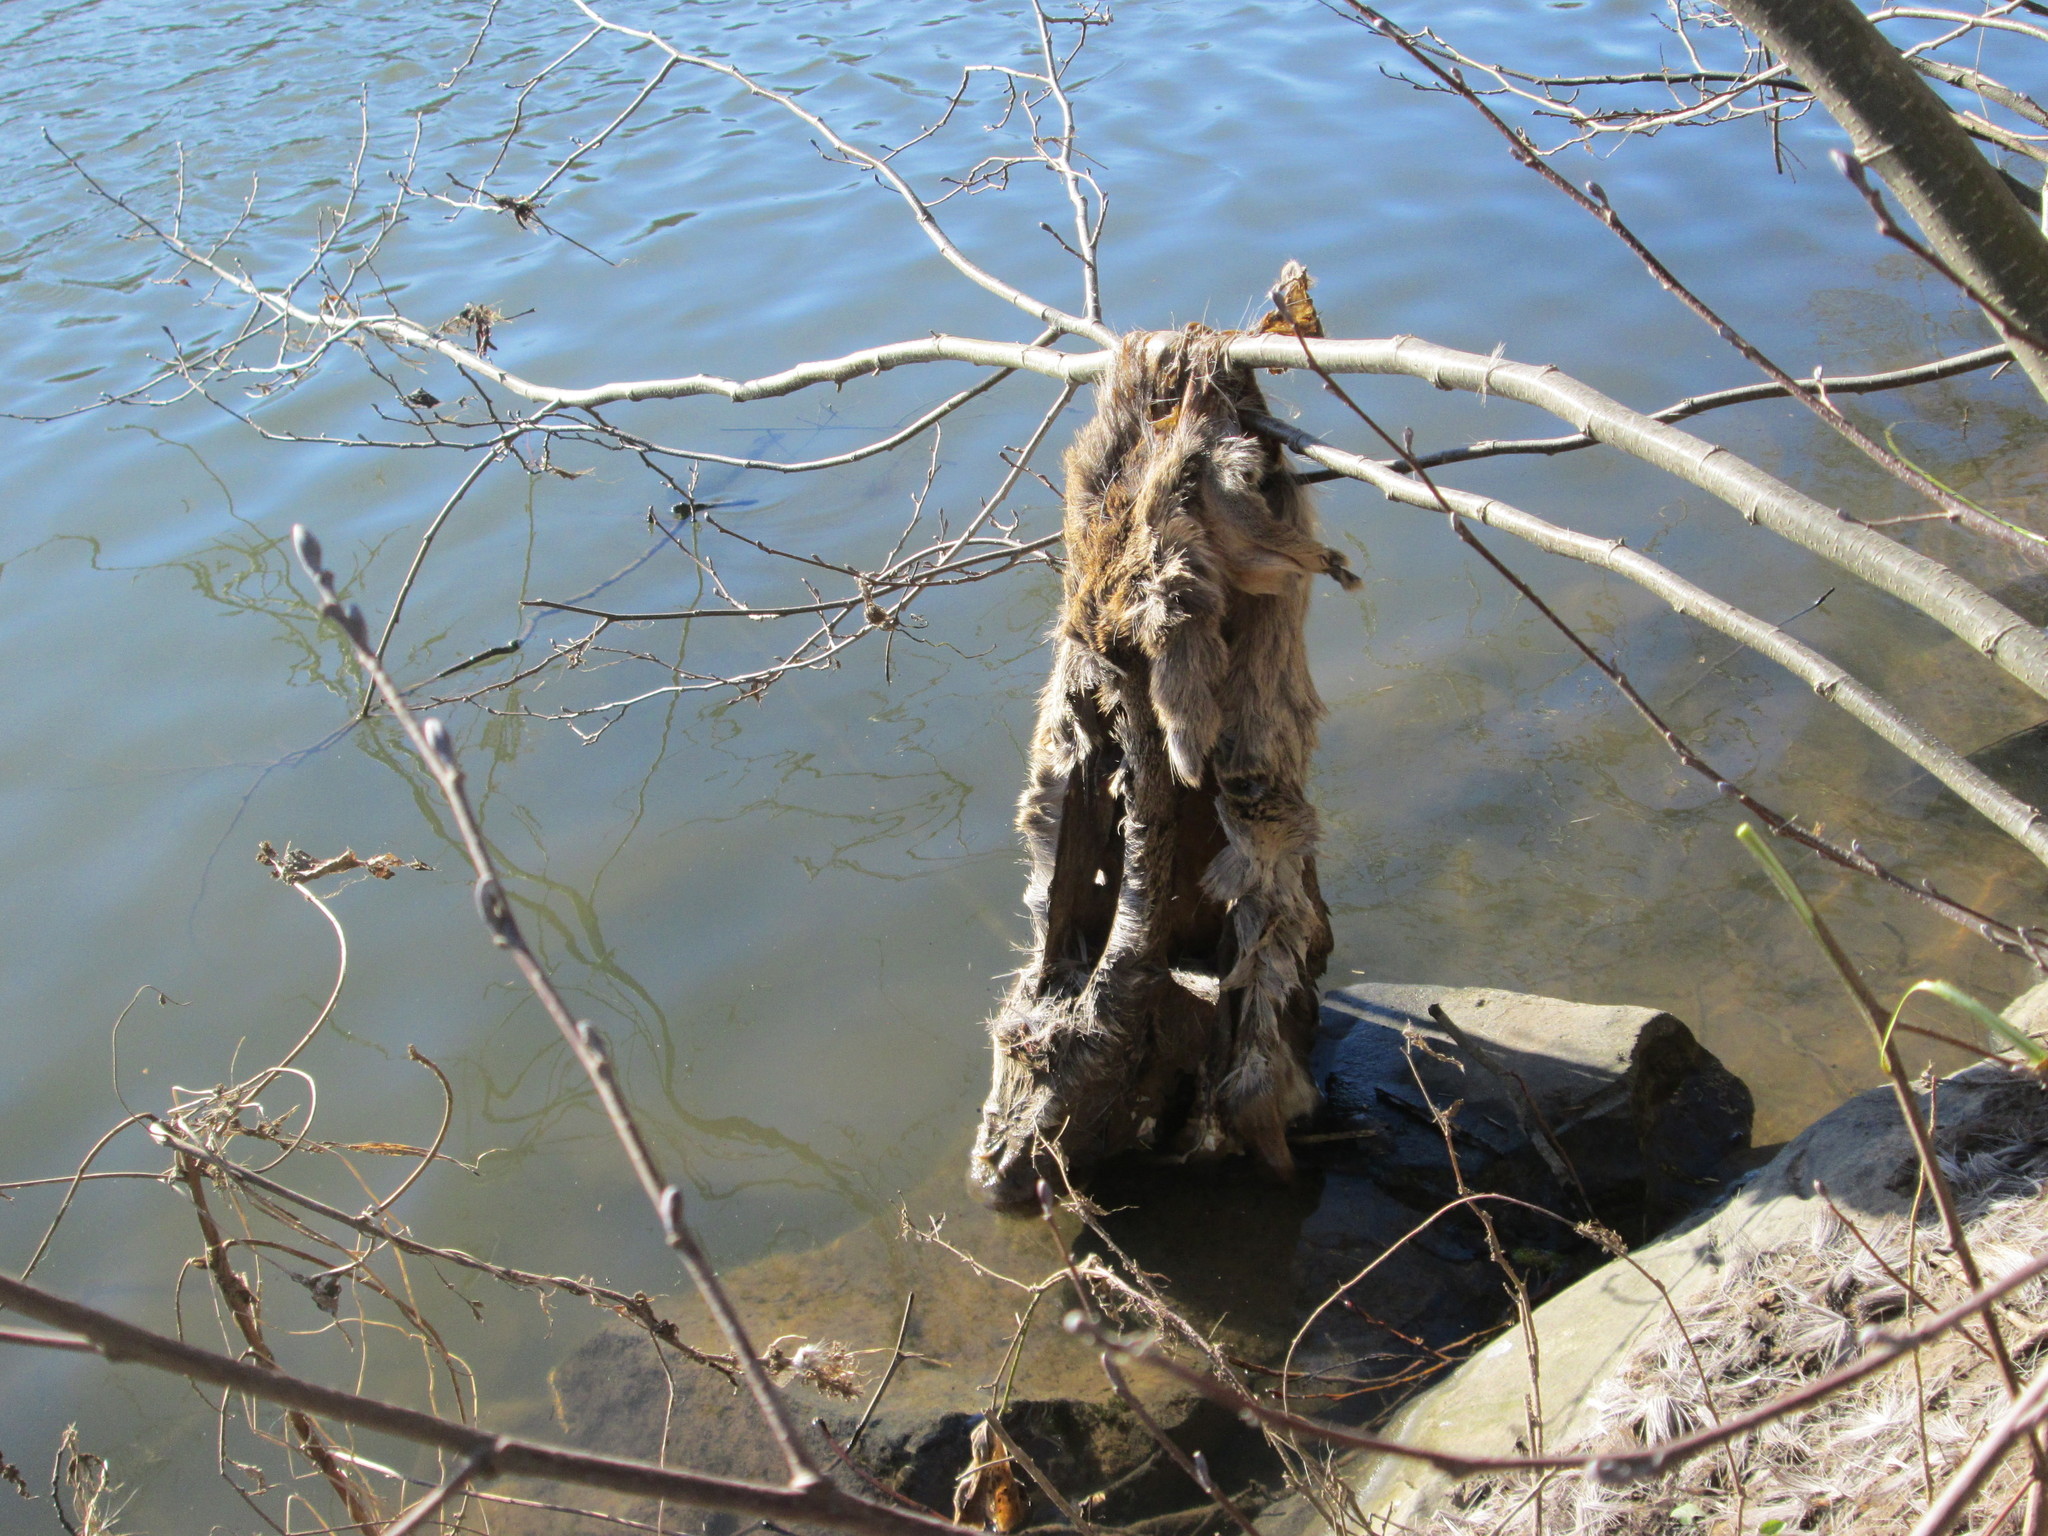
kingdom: Animalia
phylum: Chordata
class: Mammalia
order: Artiodactyla
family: Cervidae
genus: Capreolus
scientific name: Capreolus capreolus
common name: Western roe deer
